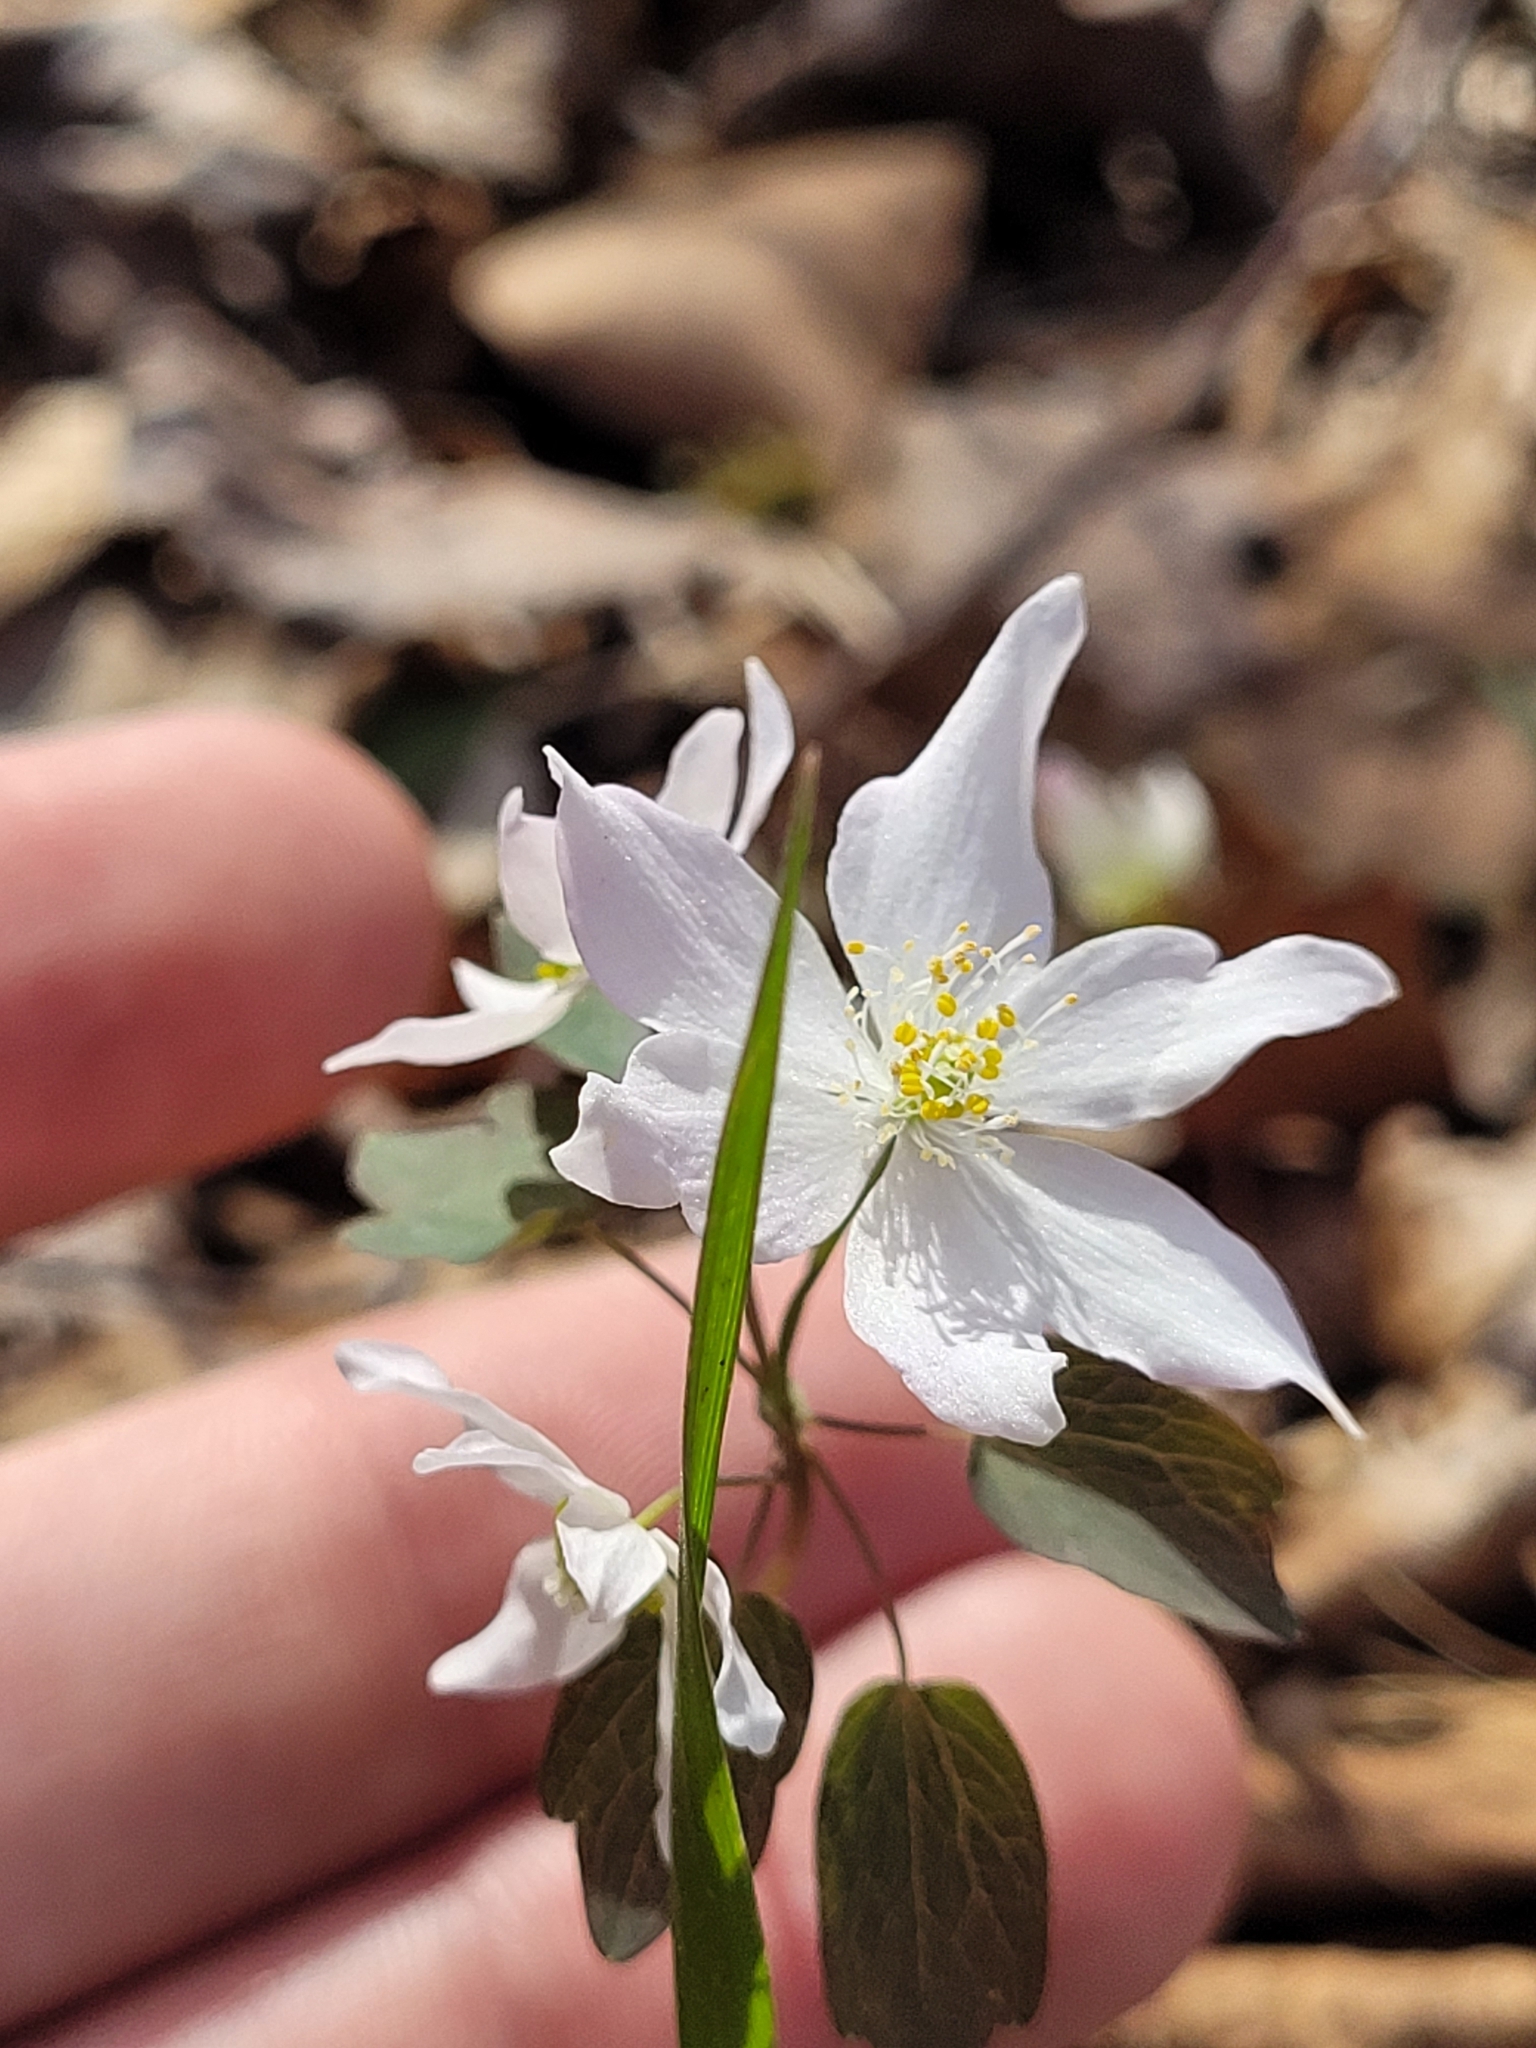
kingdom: Plantae
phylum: Tracheophyta
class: Magnoliopsida
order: Ranunculales
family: Ranunculaceae
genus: Thalictrum
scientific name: Thalictrum thalictroides
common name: Rue-anemone
